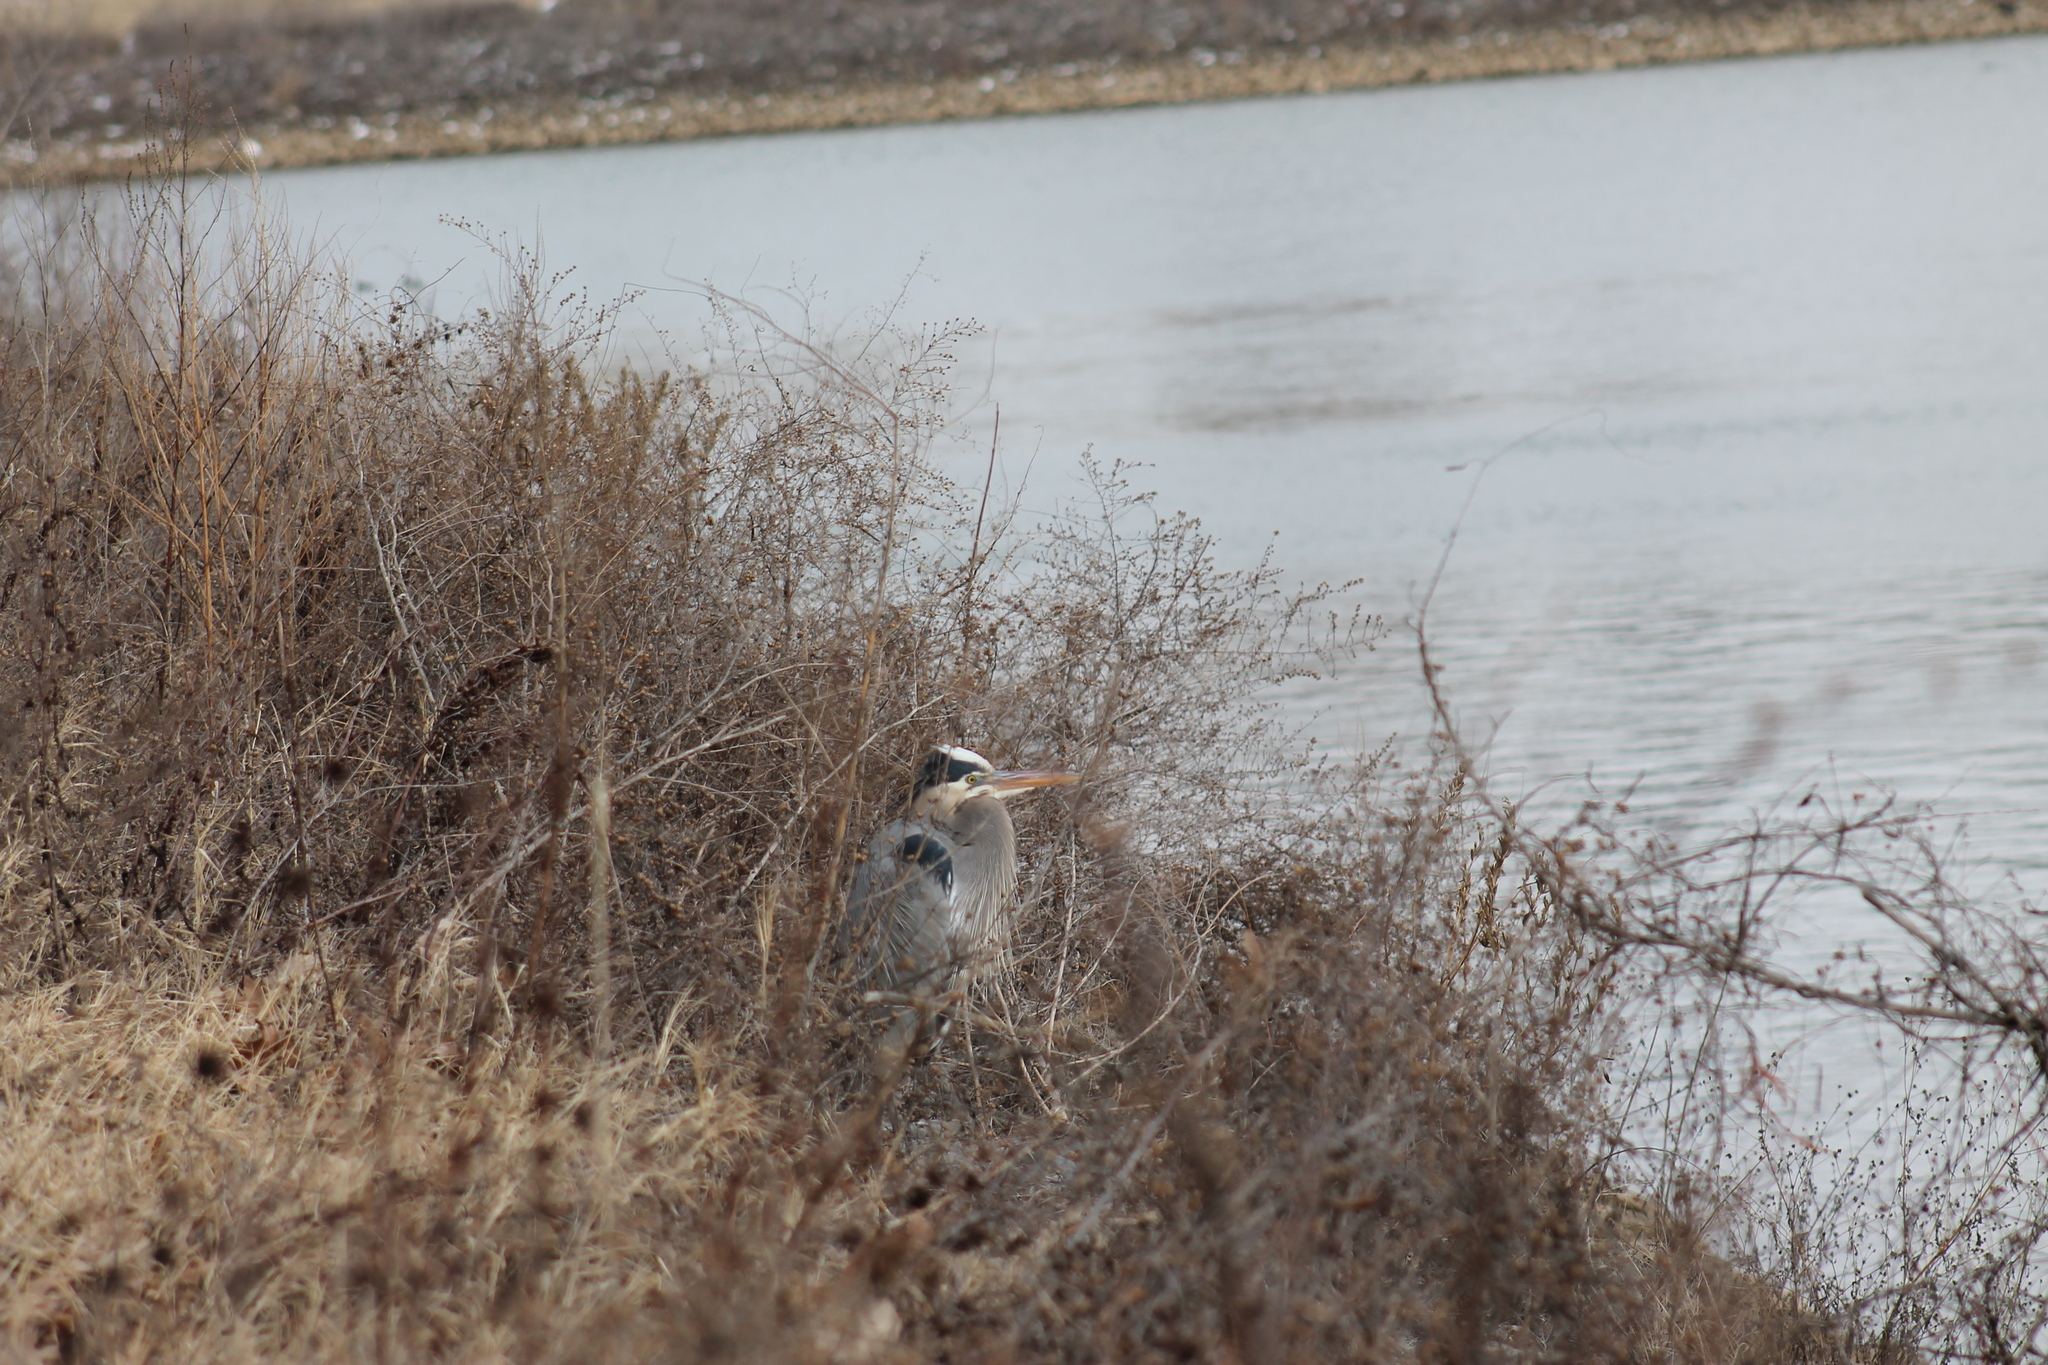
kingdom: Animalia
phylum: Chordata
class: Aves
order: Pelecaniformes
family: Ardeidae
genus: Ardea
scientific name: Ardea herodias
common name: Great blue heron
